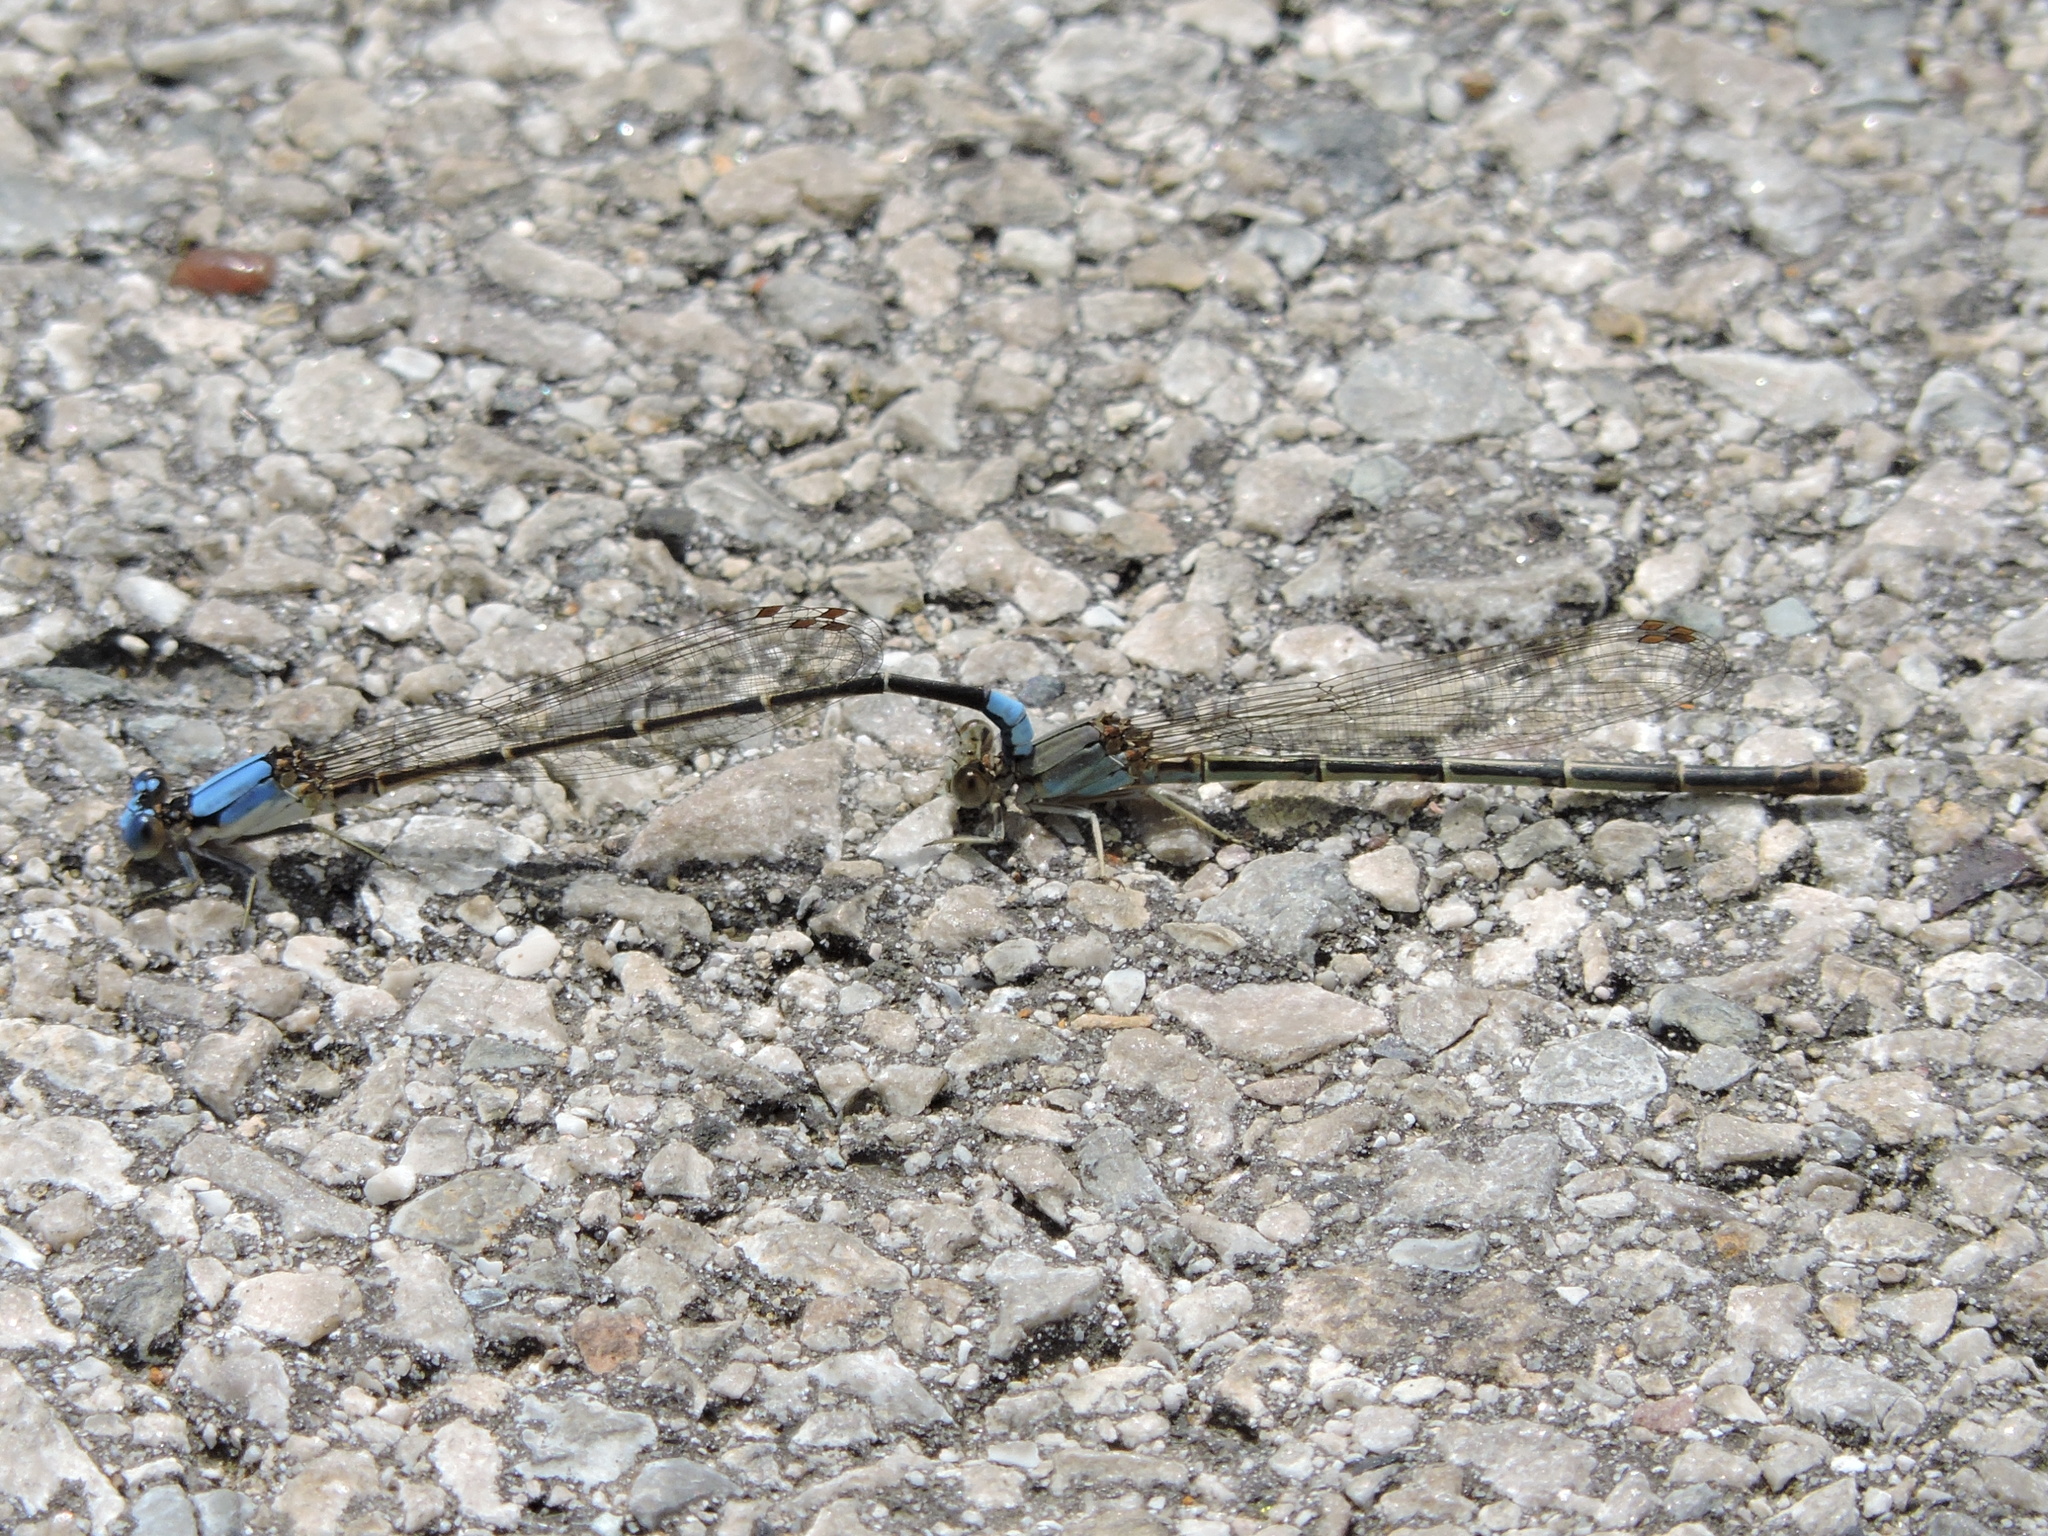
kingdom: Animalia
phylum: Arthropoda
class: Insecta
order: Odonata
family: Coenagrionidae
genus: Argia
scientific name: Argia apicalis
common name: Blue-fronted dancer
